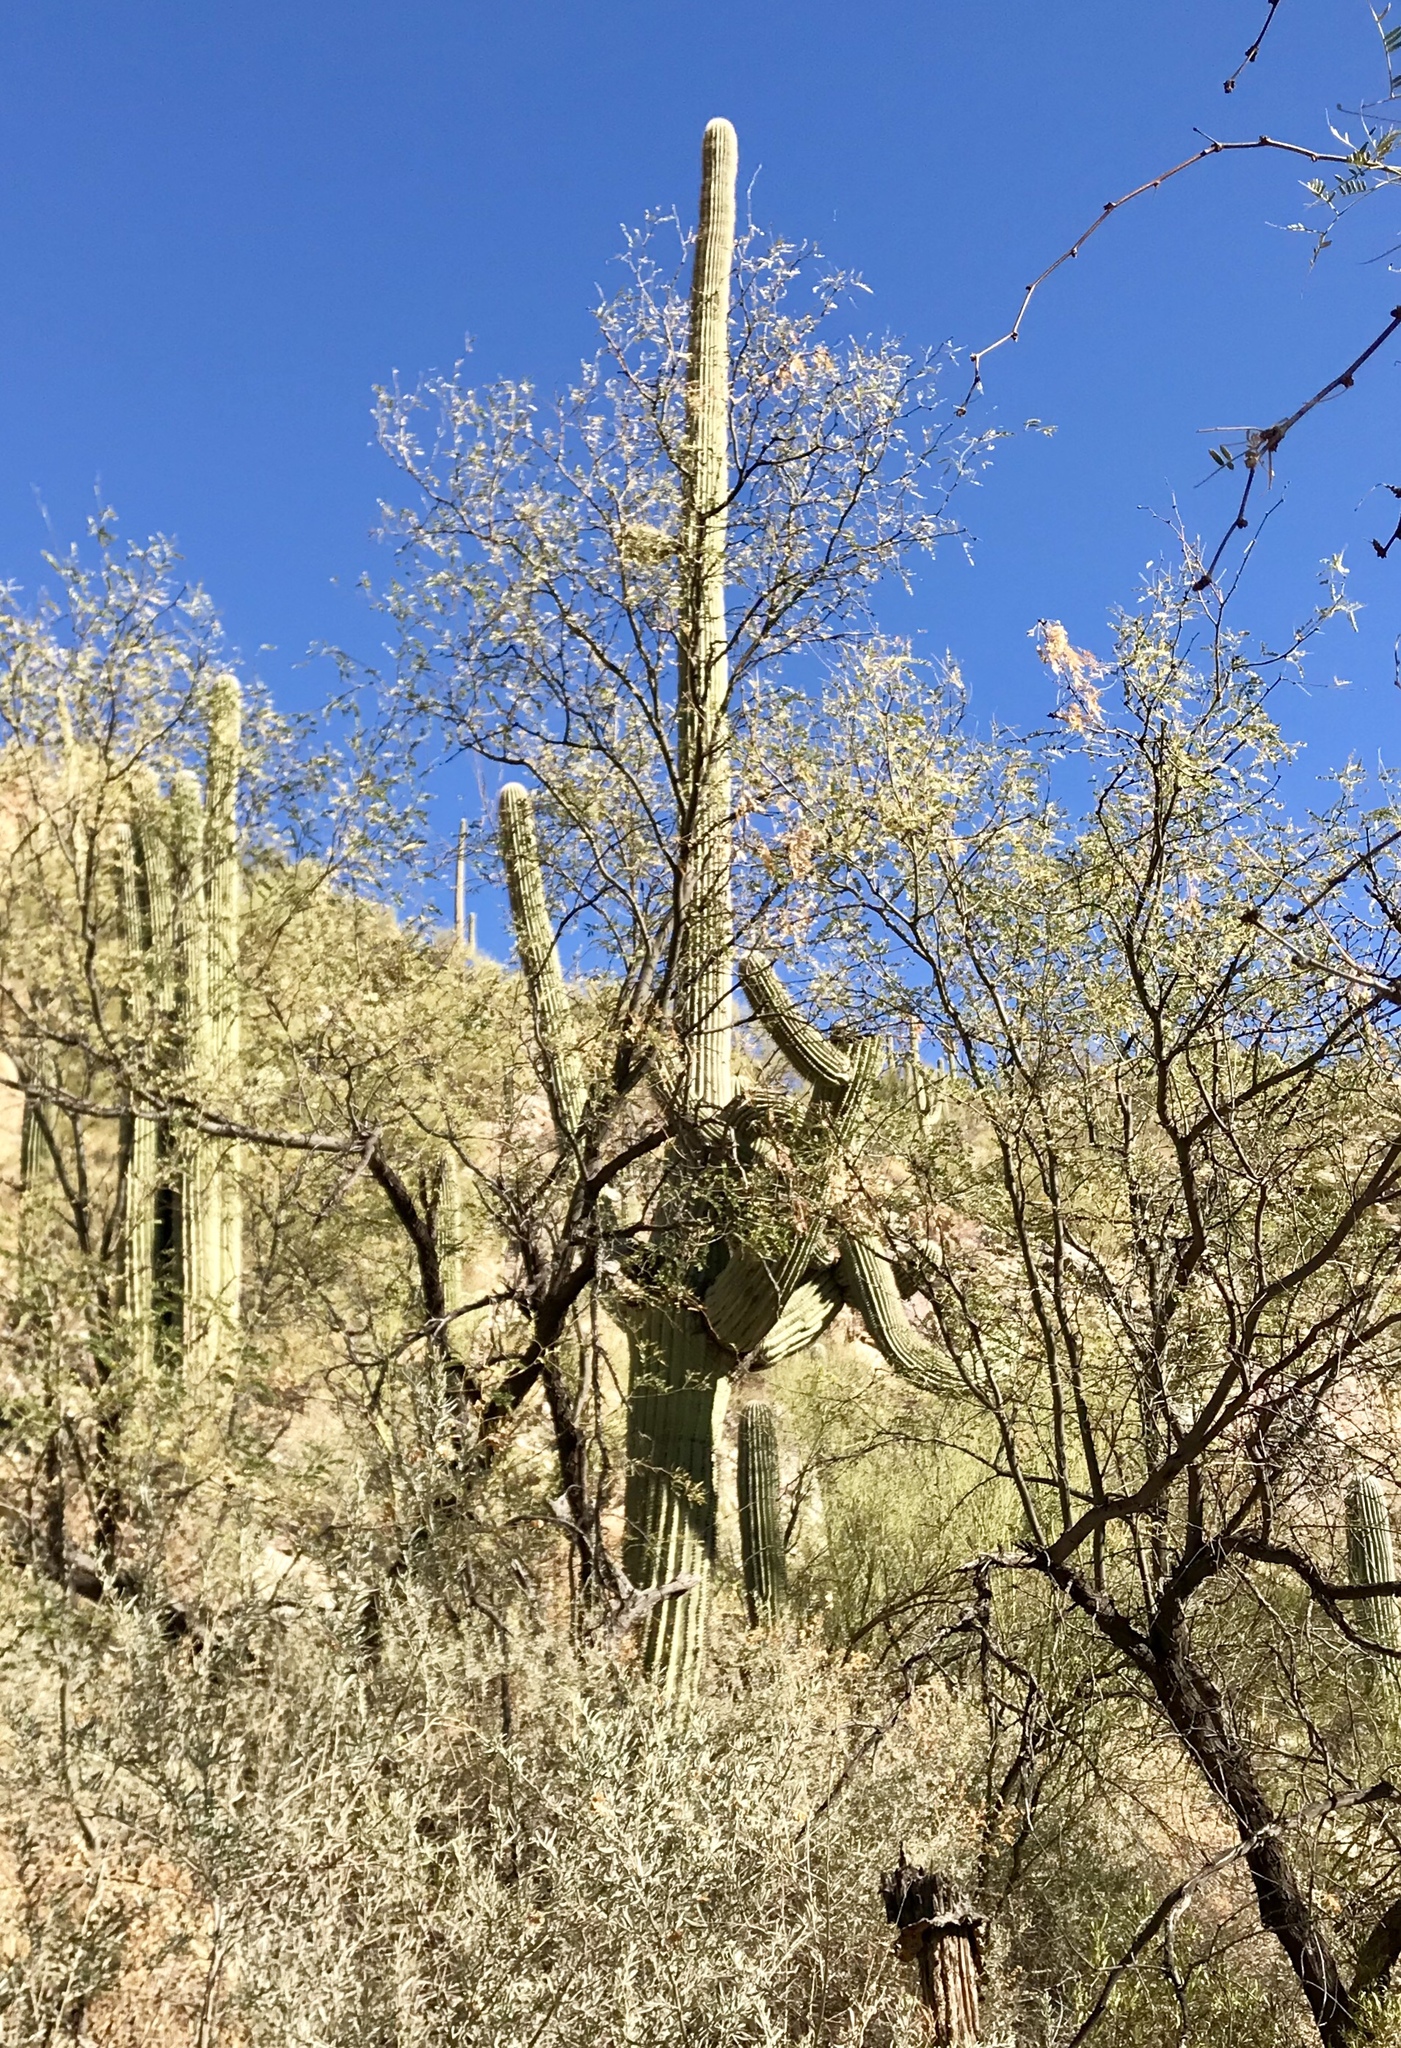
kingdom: Plantae
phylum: Tracheophyta
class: Magnoliopsida
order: Caryophyllales
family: Cactaceae
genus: Carnegiea
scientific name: Carnegiea gigantea
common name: Saguaro
